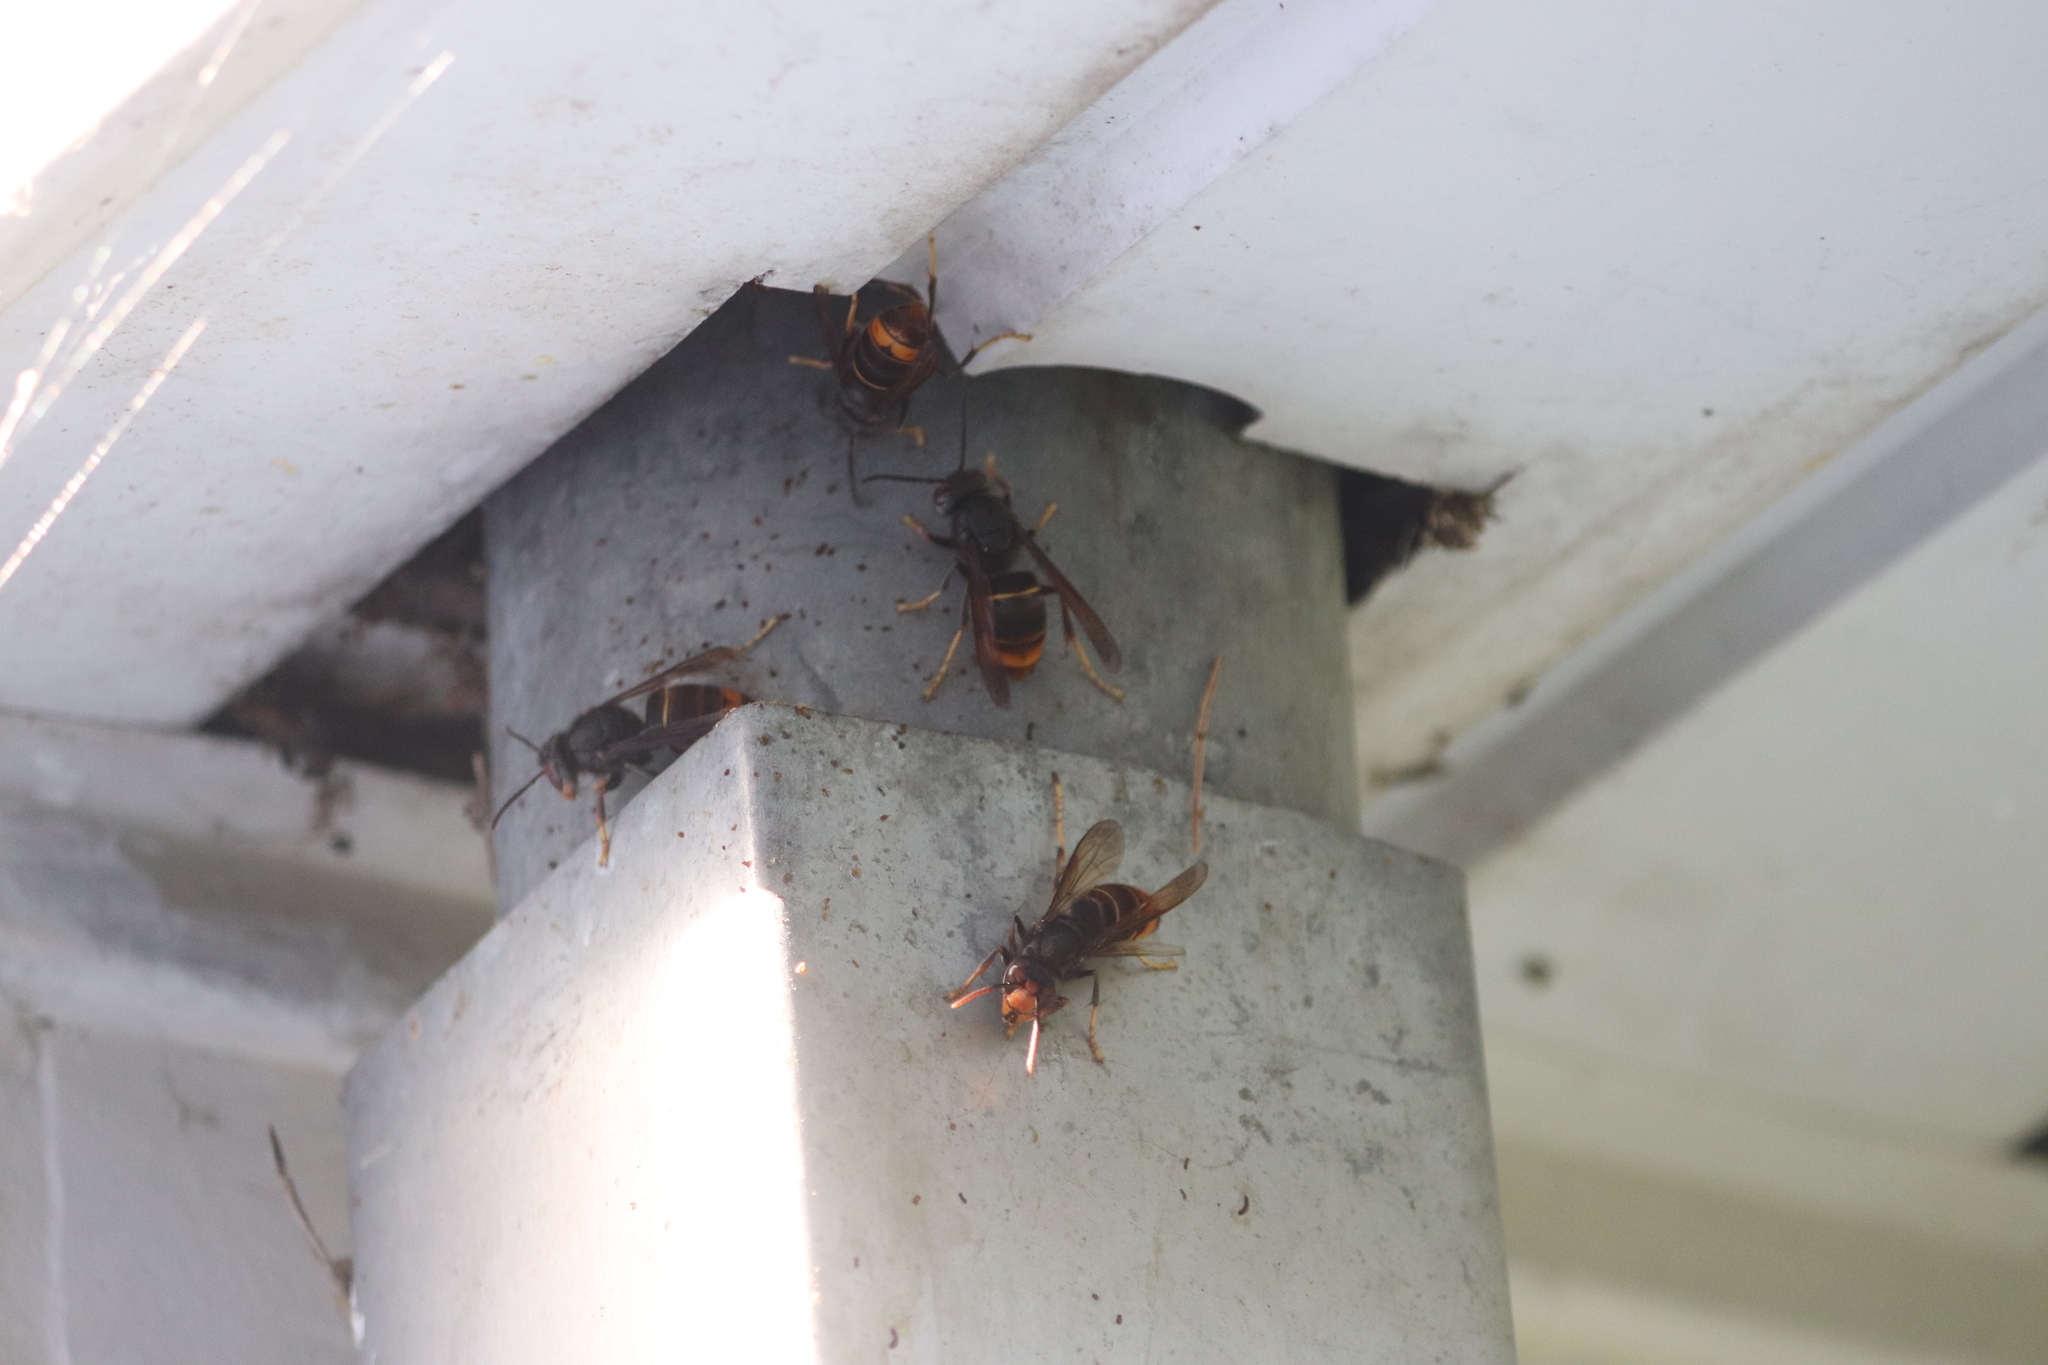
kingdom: Animalia
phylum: Arthropoda
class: Insecta
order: Hymenoptera
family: Vespidae
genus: Vespa
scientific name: Vespa velutina
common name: Asian hornet
